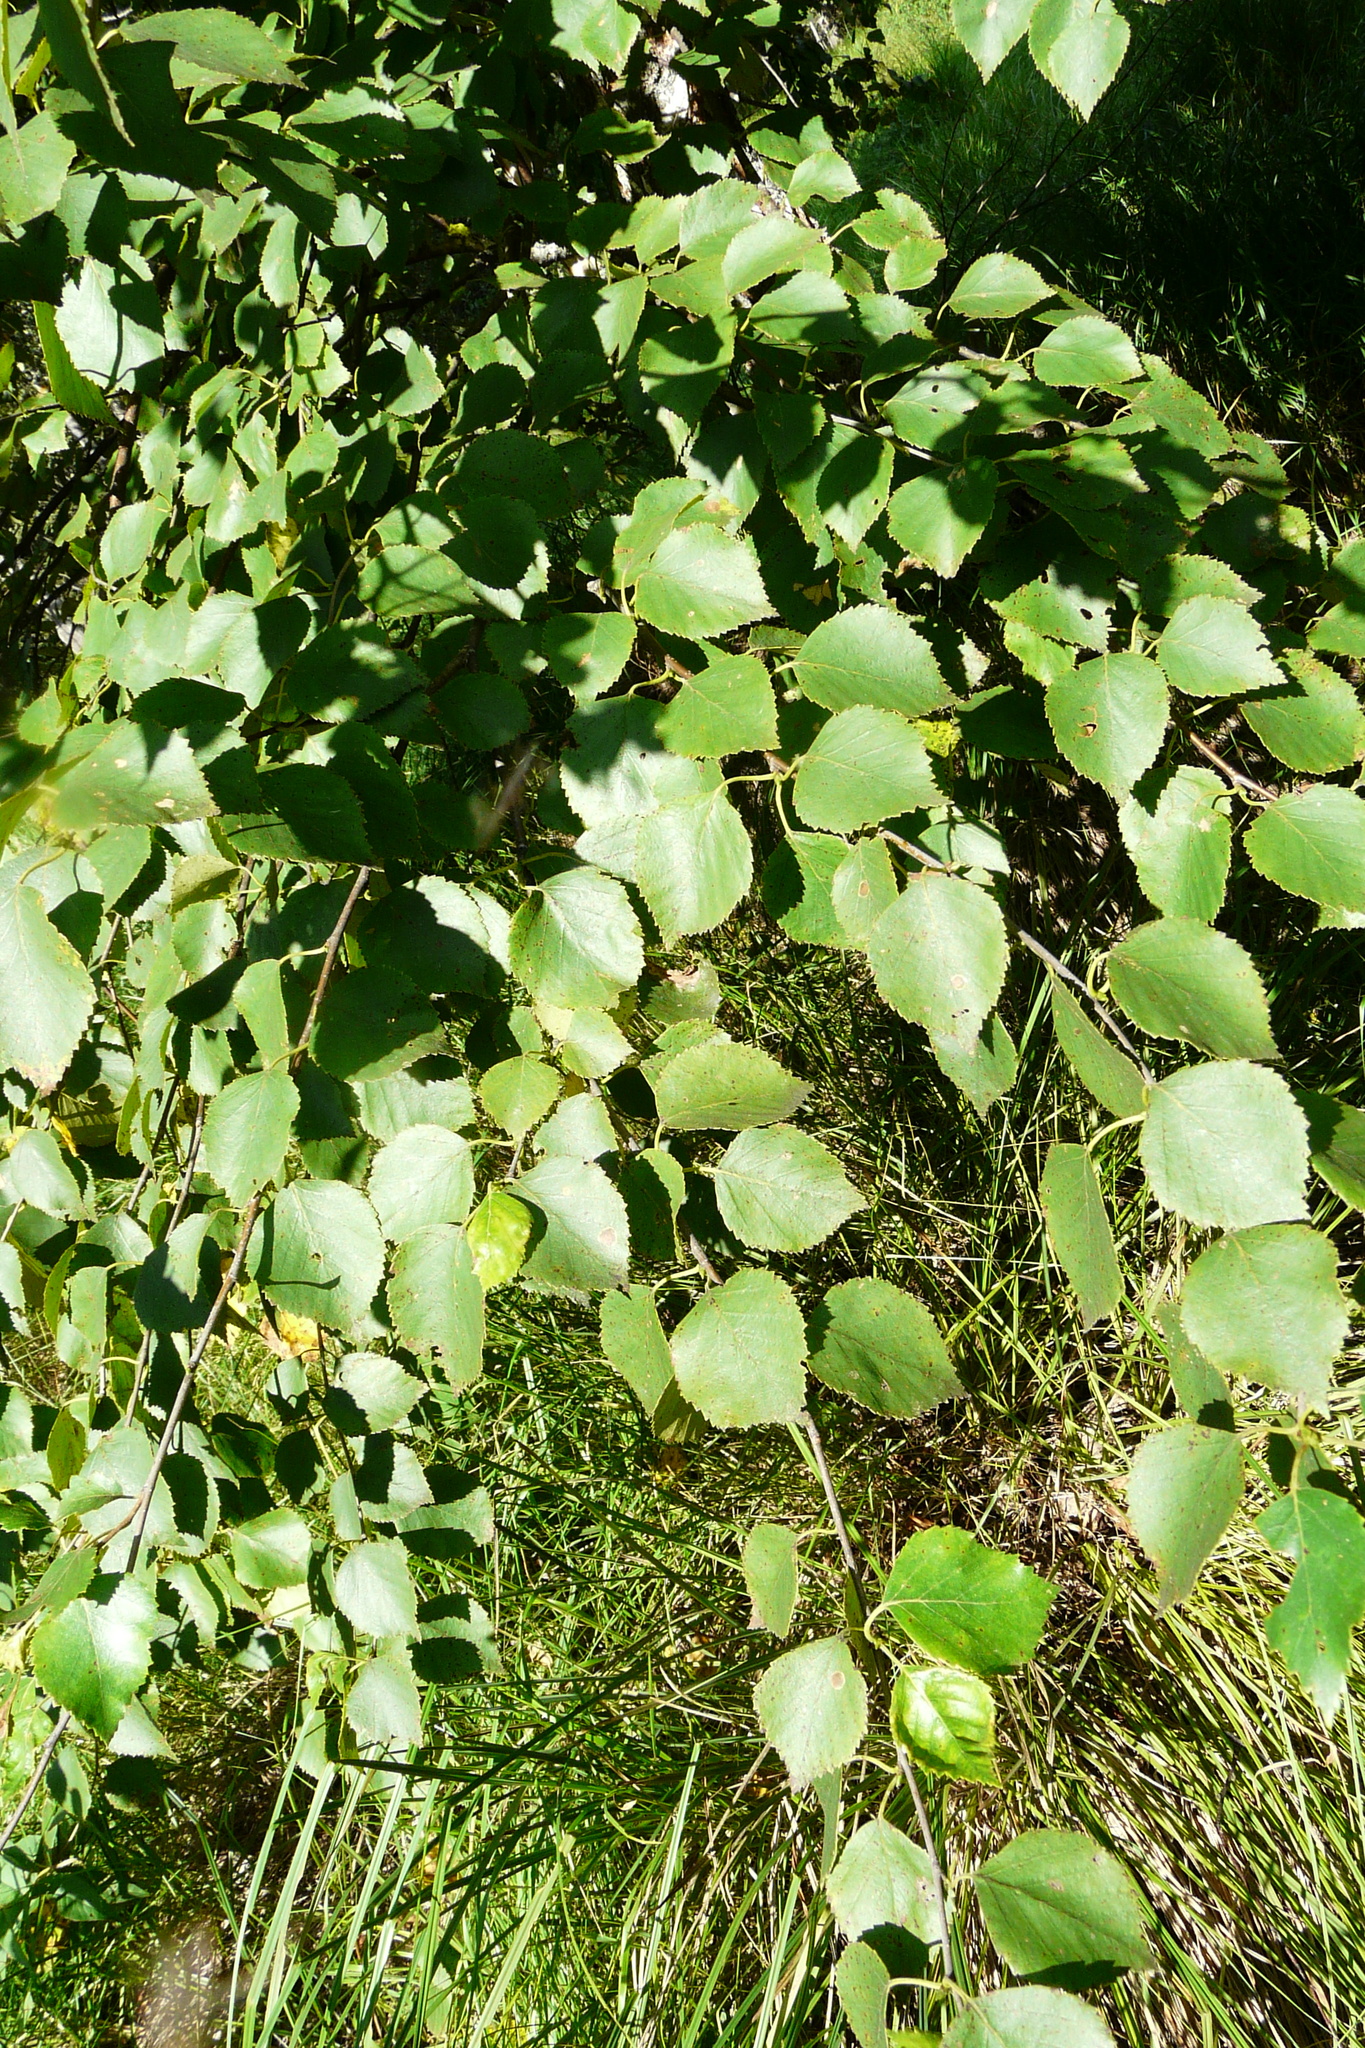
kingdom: Plantae
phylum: Tracheophyta
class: Magnoliopsida
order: Fagales
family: Betulaceae
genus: Betula
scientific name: Betula pubescens
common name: Downy birch
